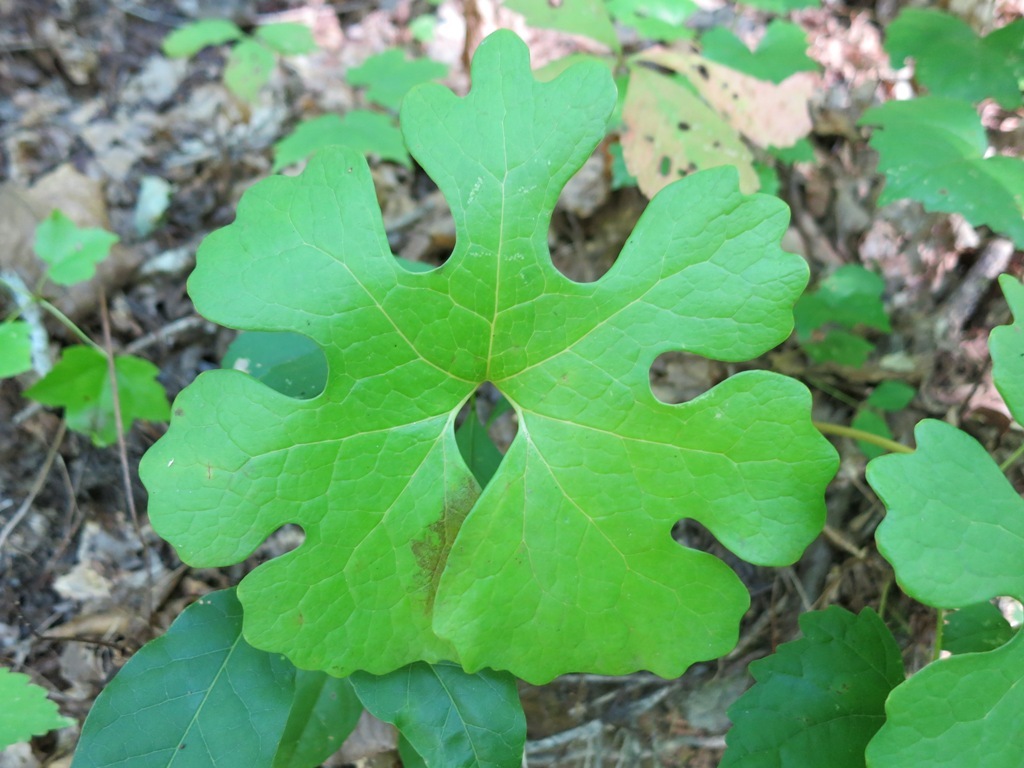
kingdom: Plantae
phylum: Tracheophyta
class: Magnoliopsida
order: Ranunculales
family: Papaveraceae
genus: Sanguinaria
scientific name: Sanguinaria canadensis
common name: Bloodroot
